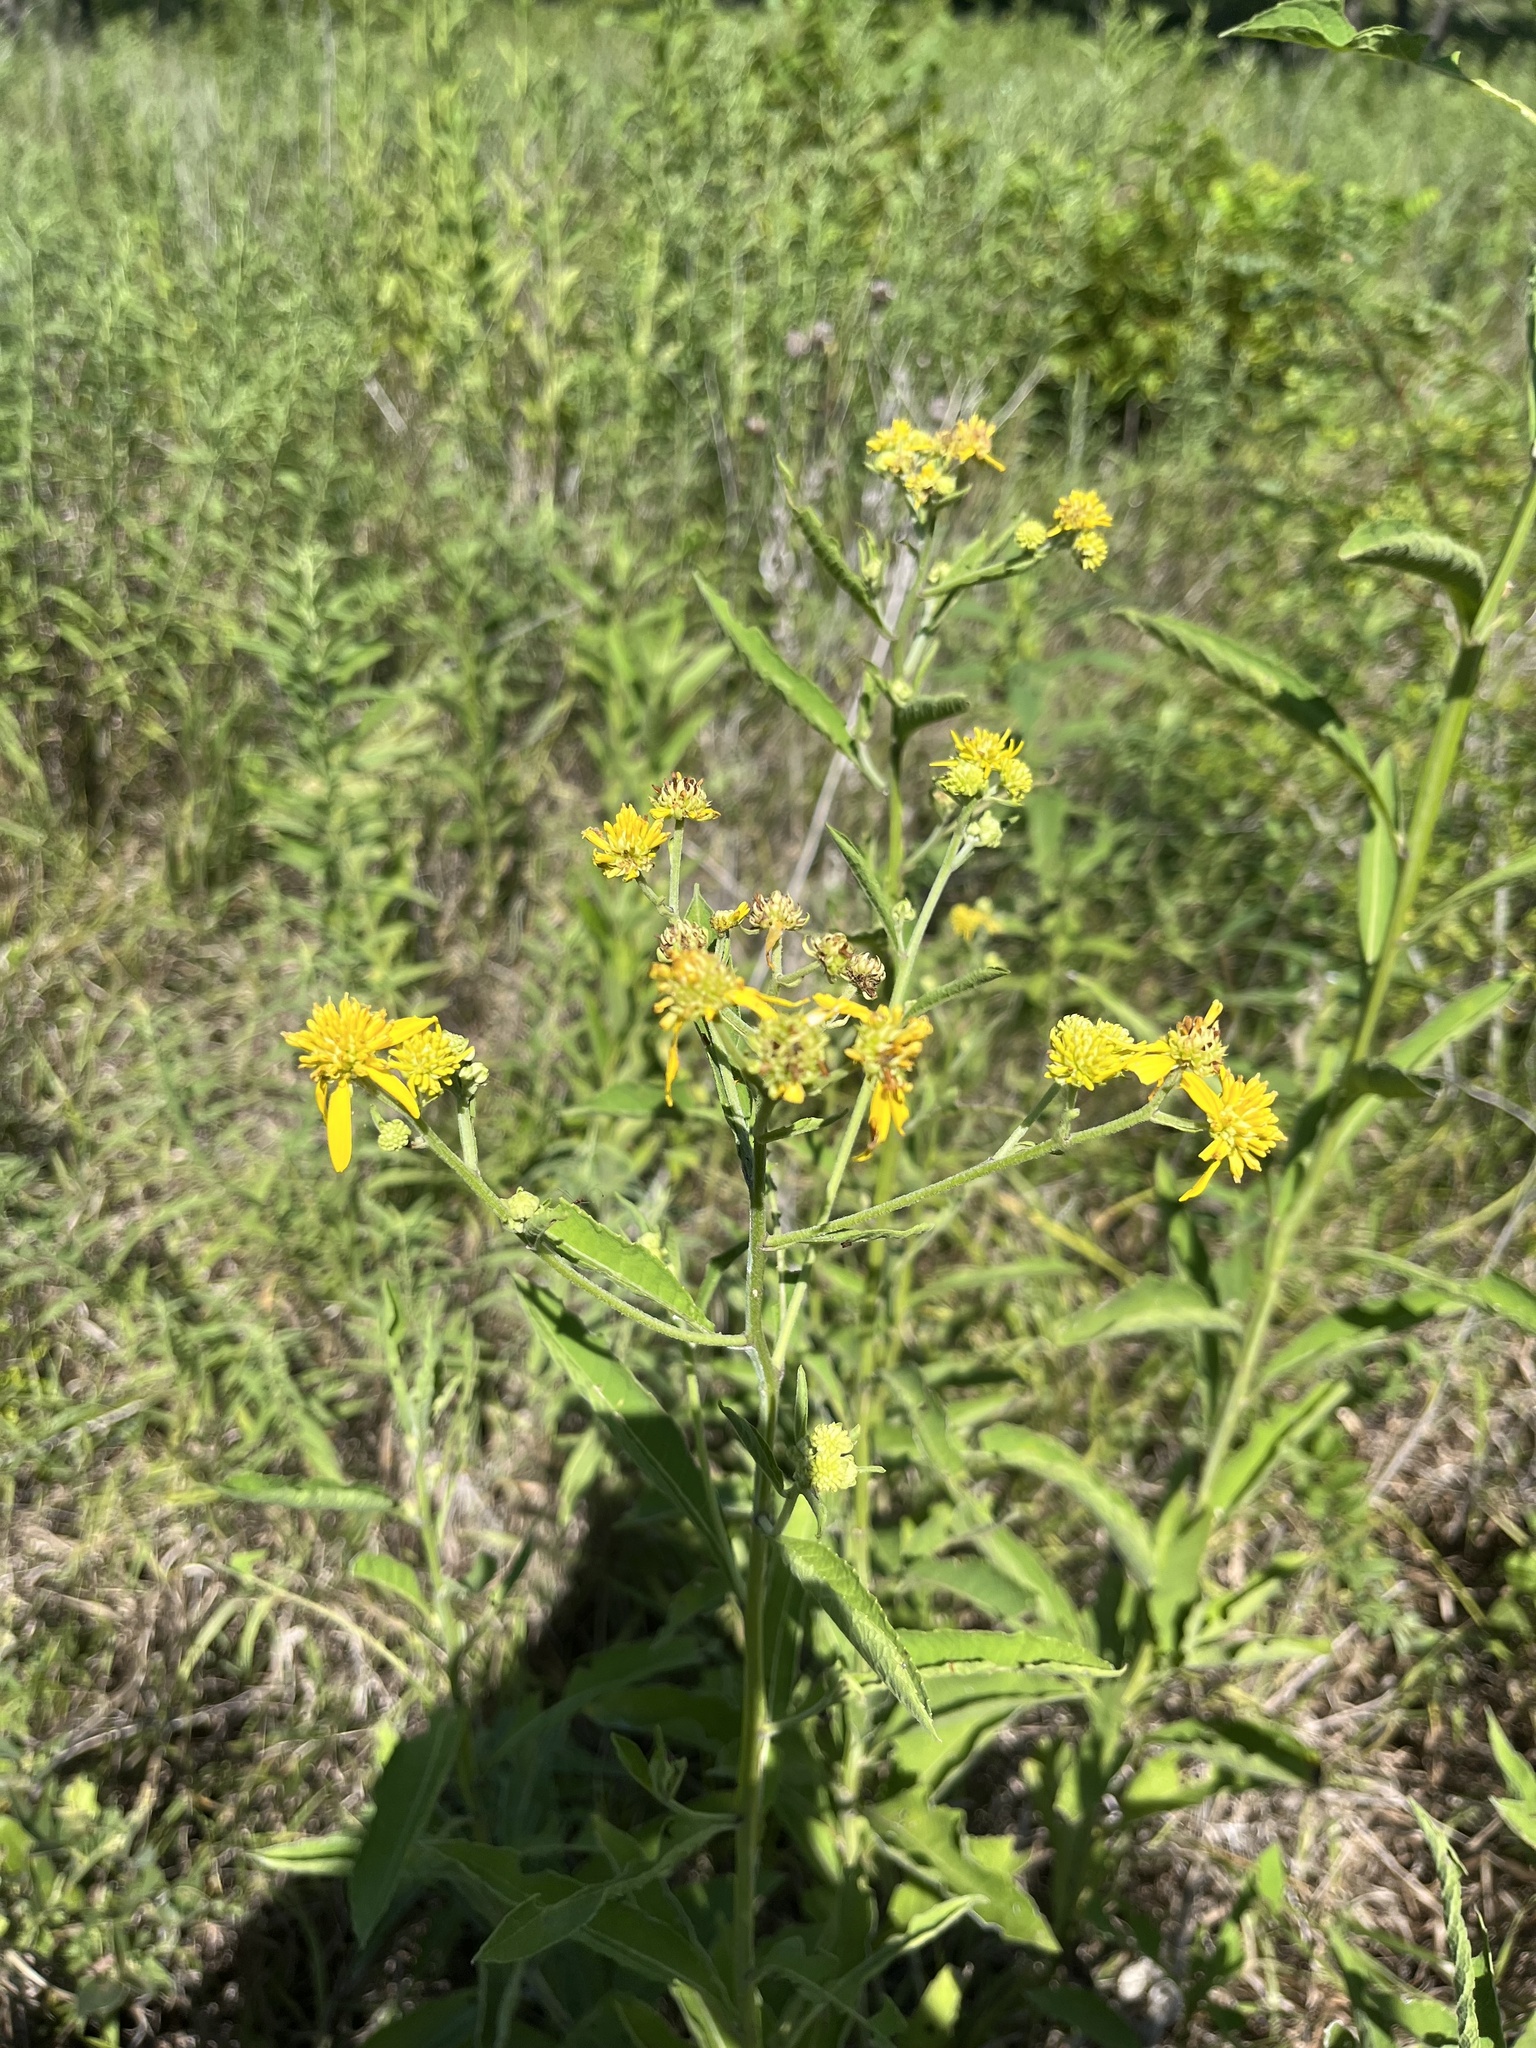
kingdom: Plantae
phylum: Tracheophyta
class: Magnoliopsida
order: Asterales
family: Asteraceae
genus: Verbesina
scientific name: Verbesina alternifolia
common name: Wingstem
